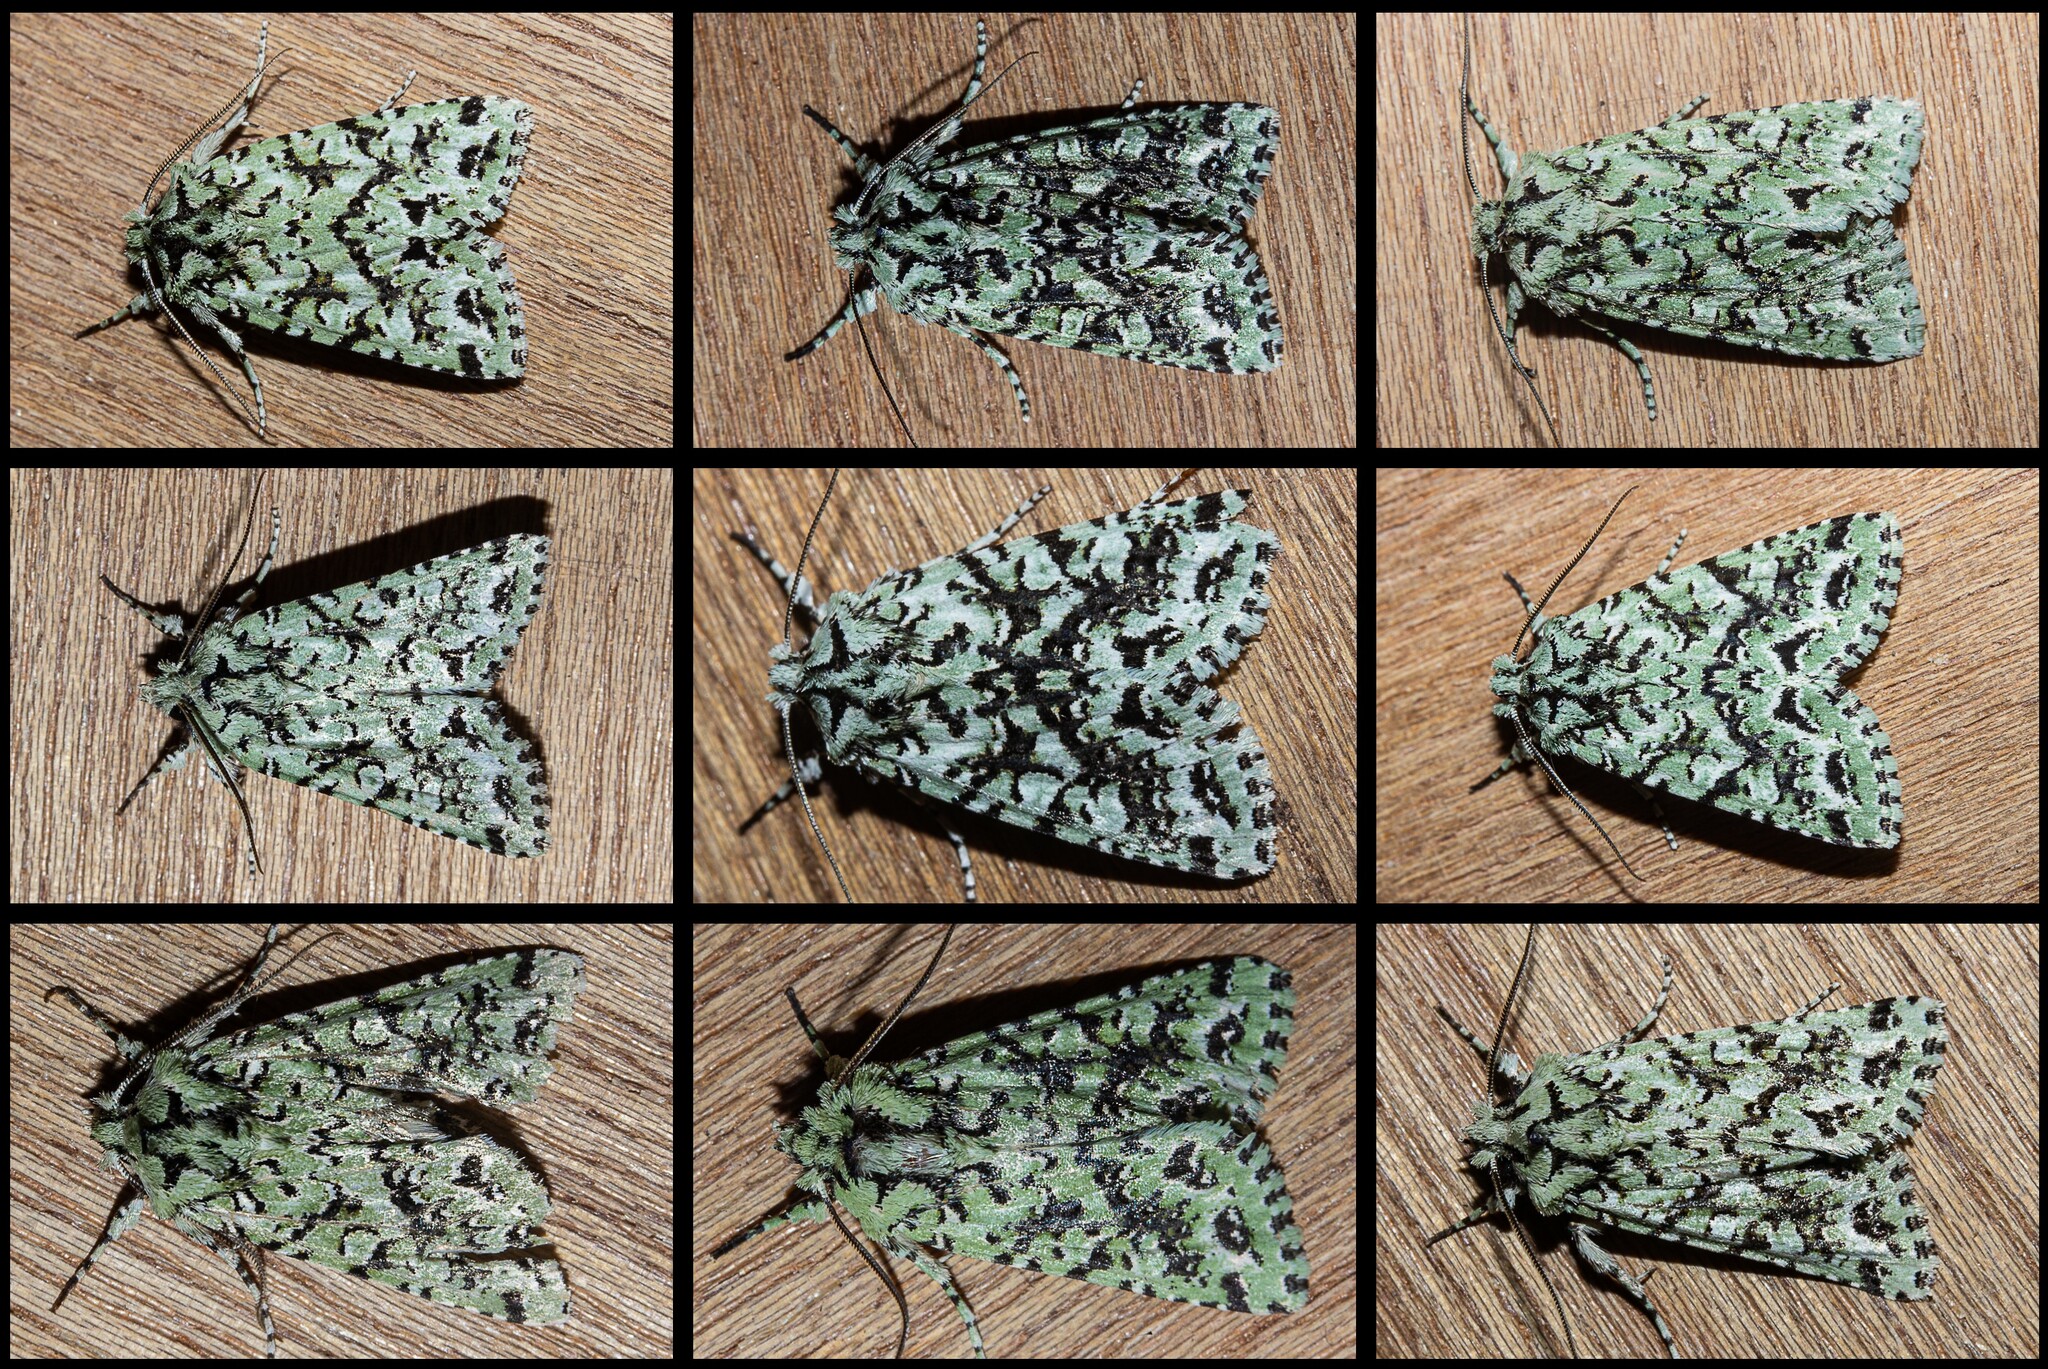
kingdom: Animalia
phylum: Arthropoda
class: Insecta
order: Lepidoptera
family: Noctuidae
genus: Meterana
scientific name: Meterana
